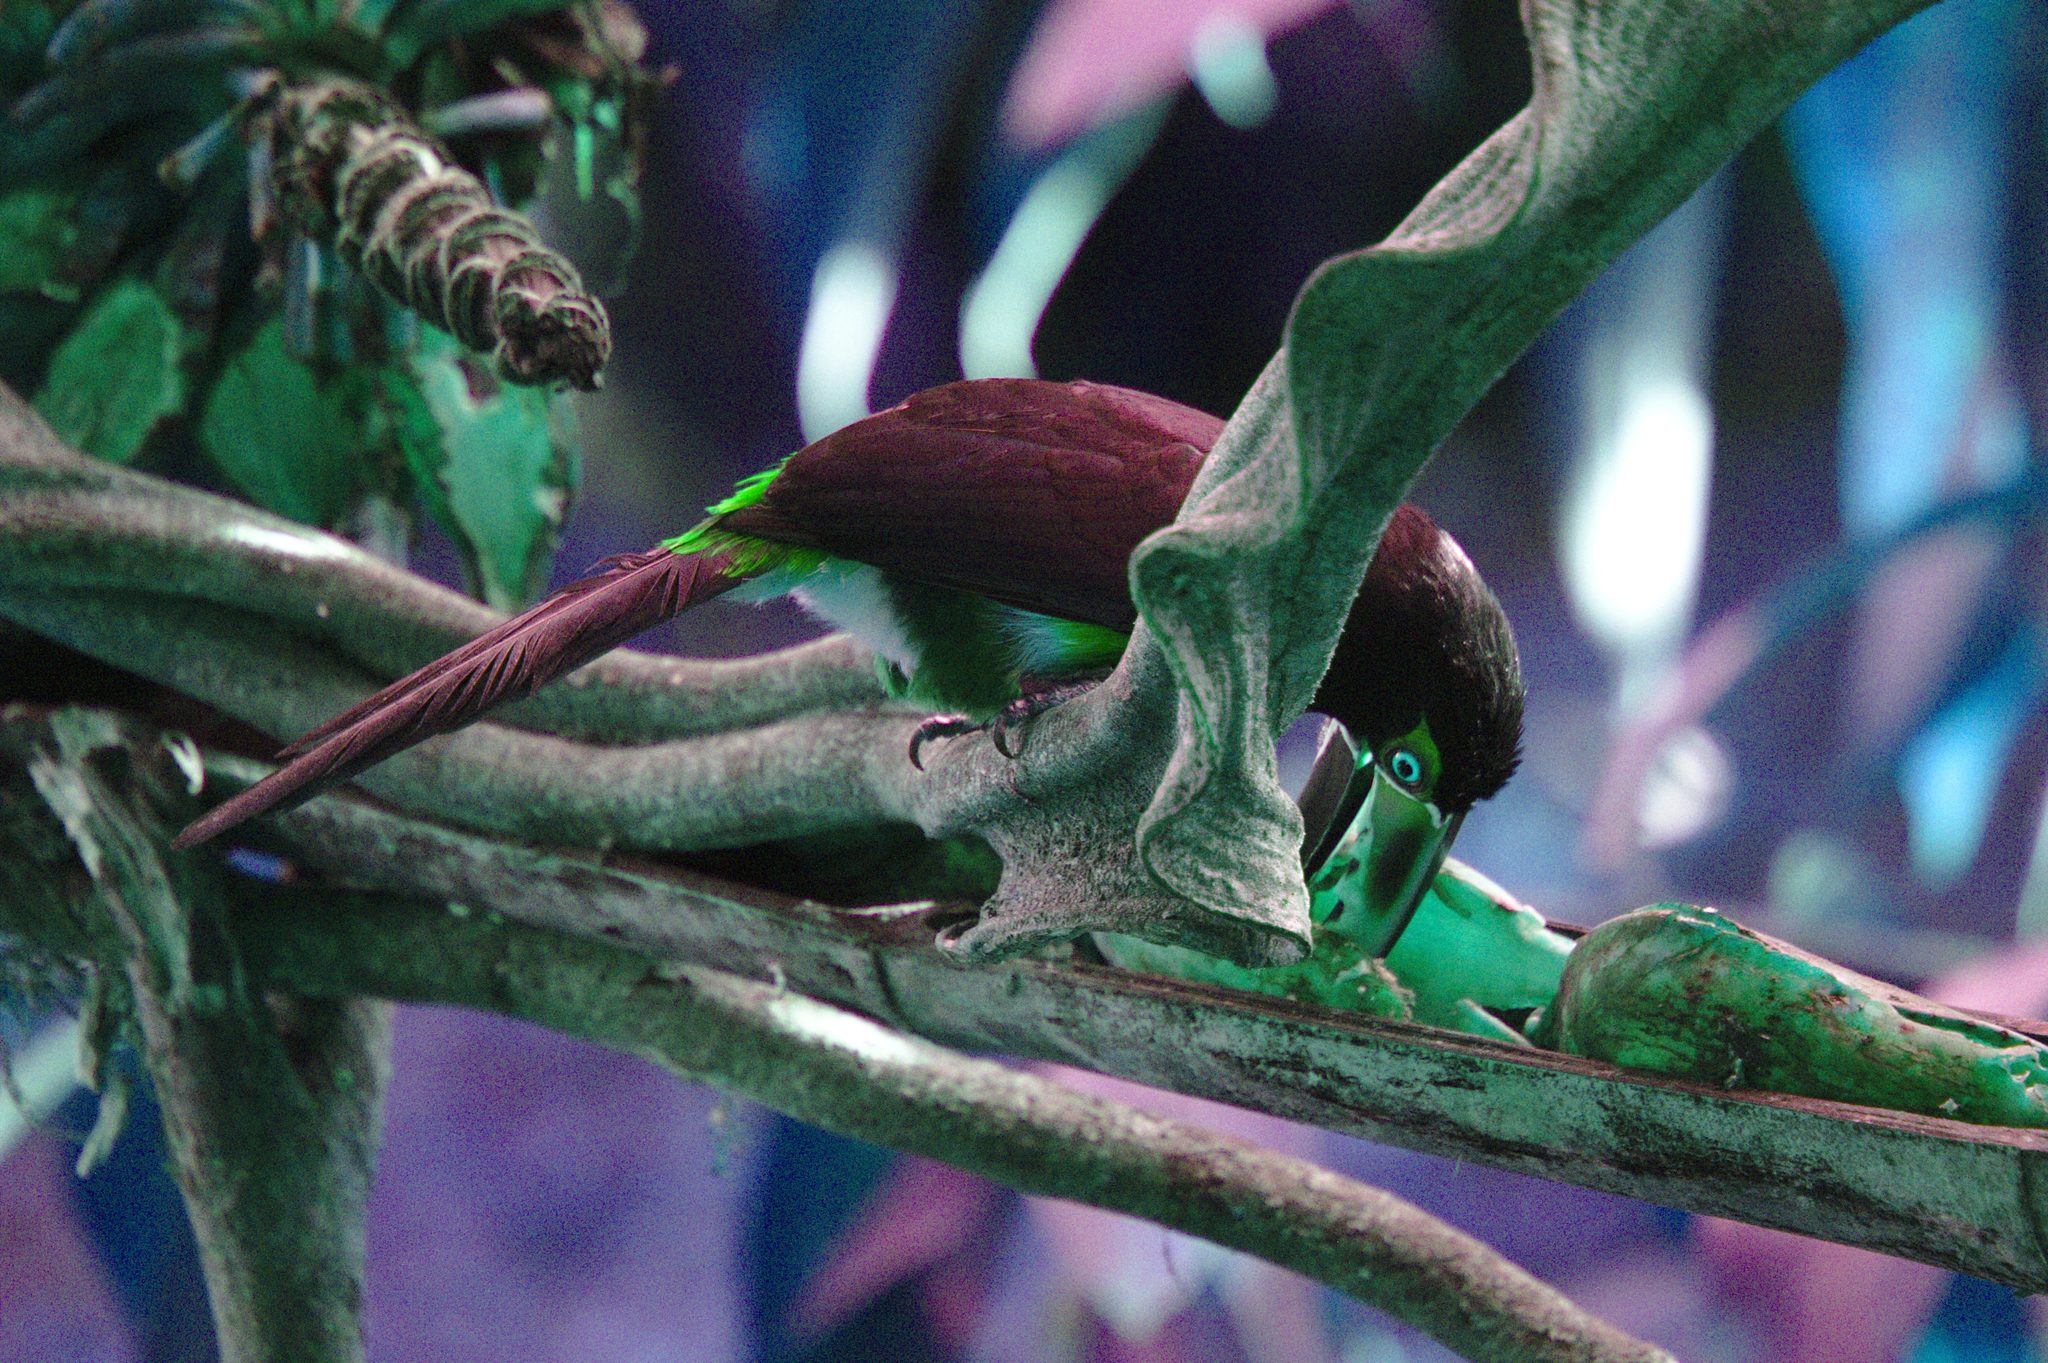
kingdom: Animalia
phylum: Chordata
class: Aves
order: Piciformes
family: Ramphastidae
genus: Pteroglossus
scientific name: Pteroglossus torquatus
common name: Collared aracari
